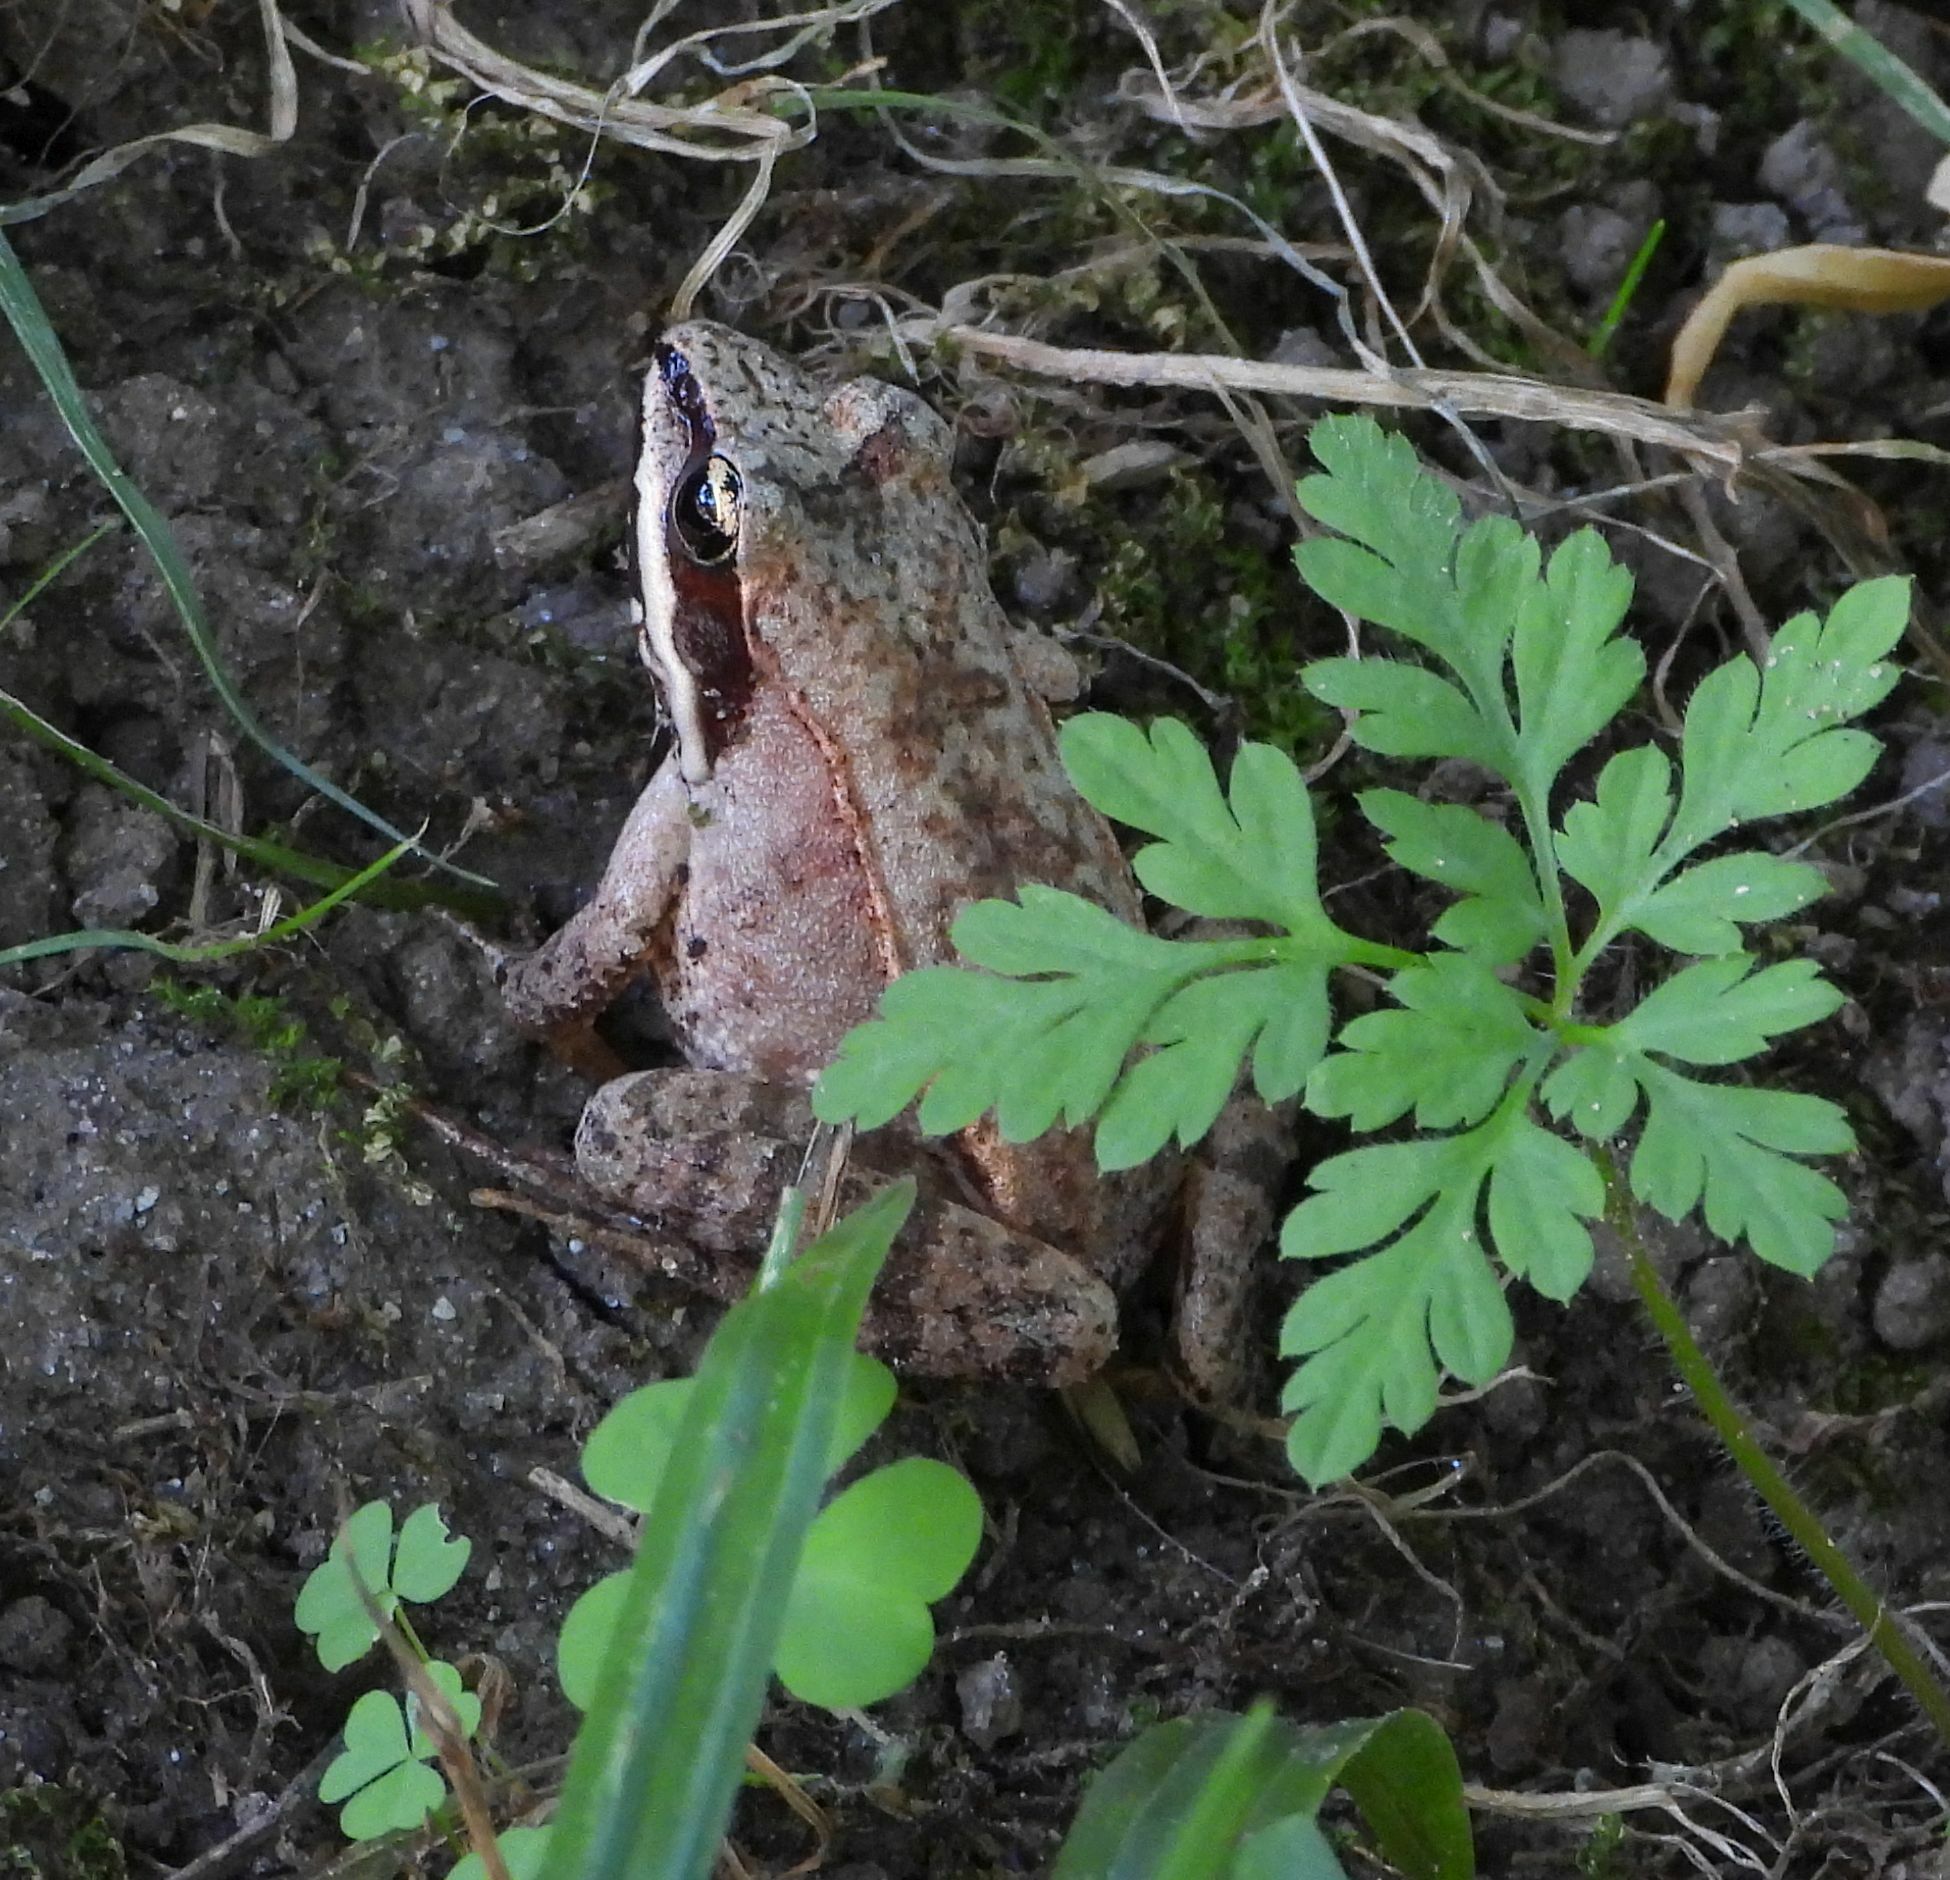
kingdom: Animalia
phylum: Chordata
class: Amphibia
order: Anura
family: Ranidae
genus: Lithobates
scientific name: Lithobates sylvaticus
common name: Wood frog
